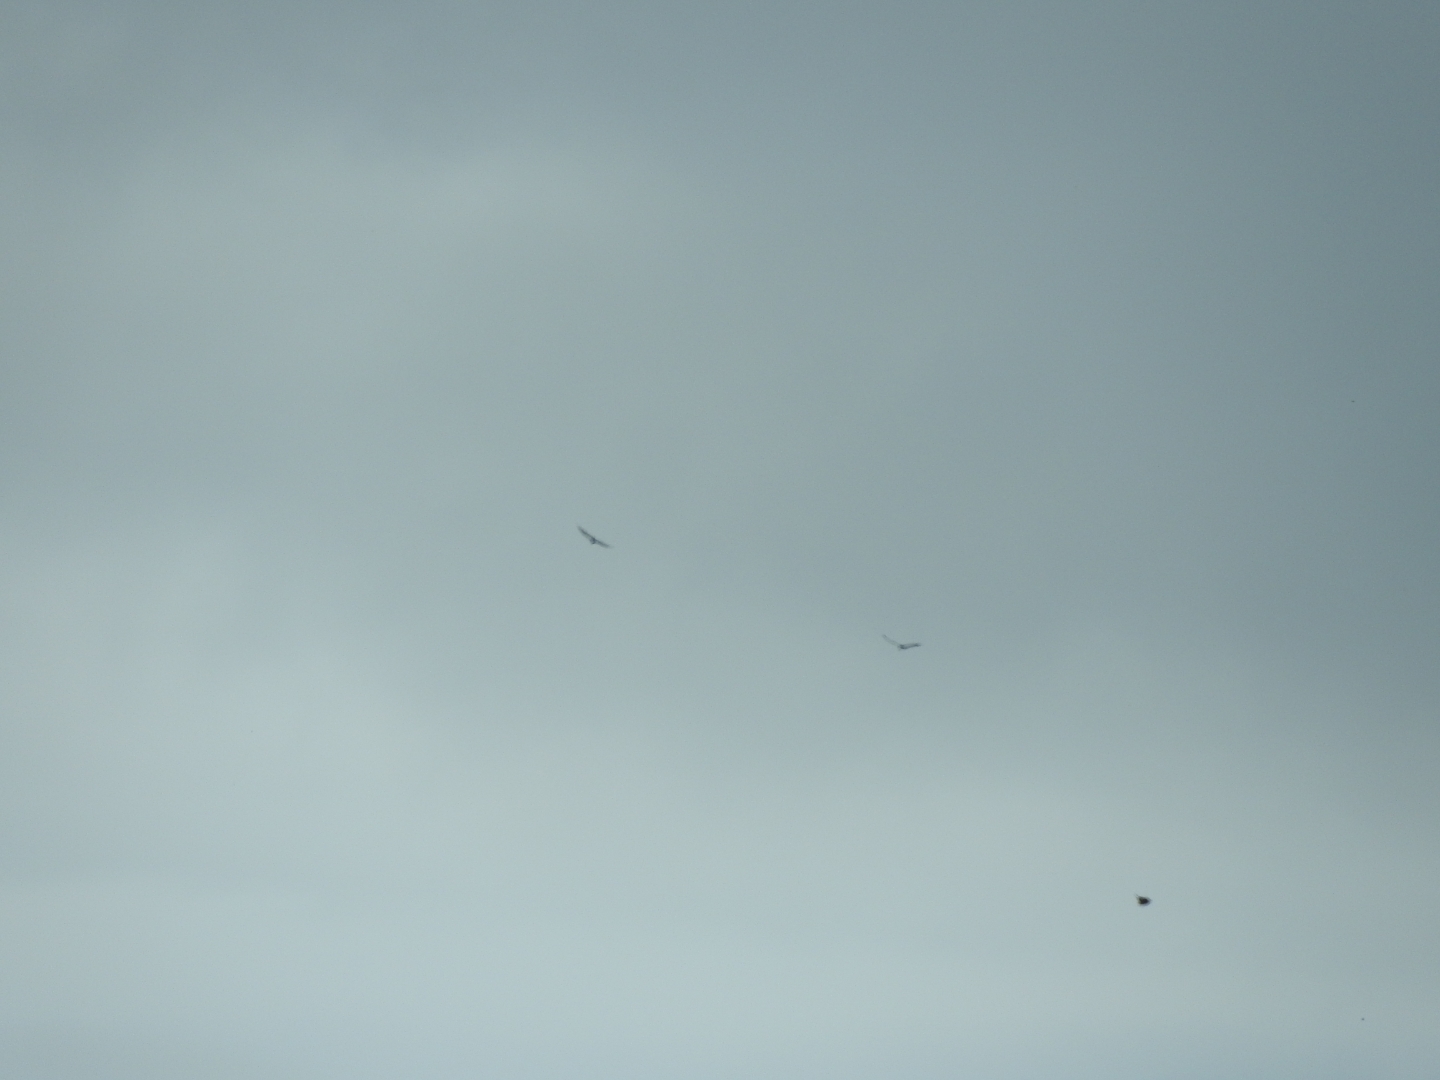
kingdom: Animalia
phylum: Chordata
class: Aves
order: Accipitriformes
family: Cathartidae
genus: Cathartes
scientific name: Cathartes aura
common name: Turkey vulture
